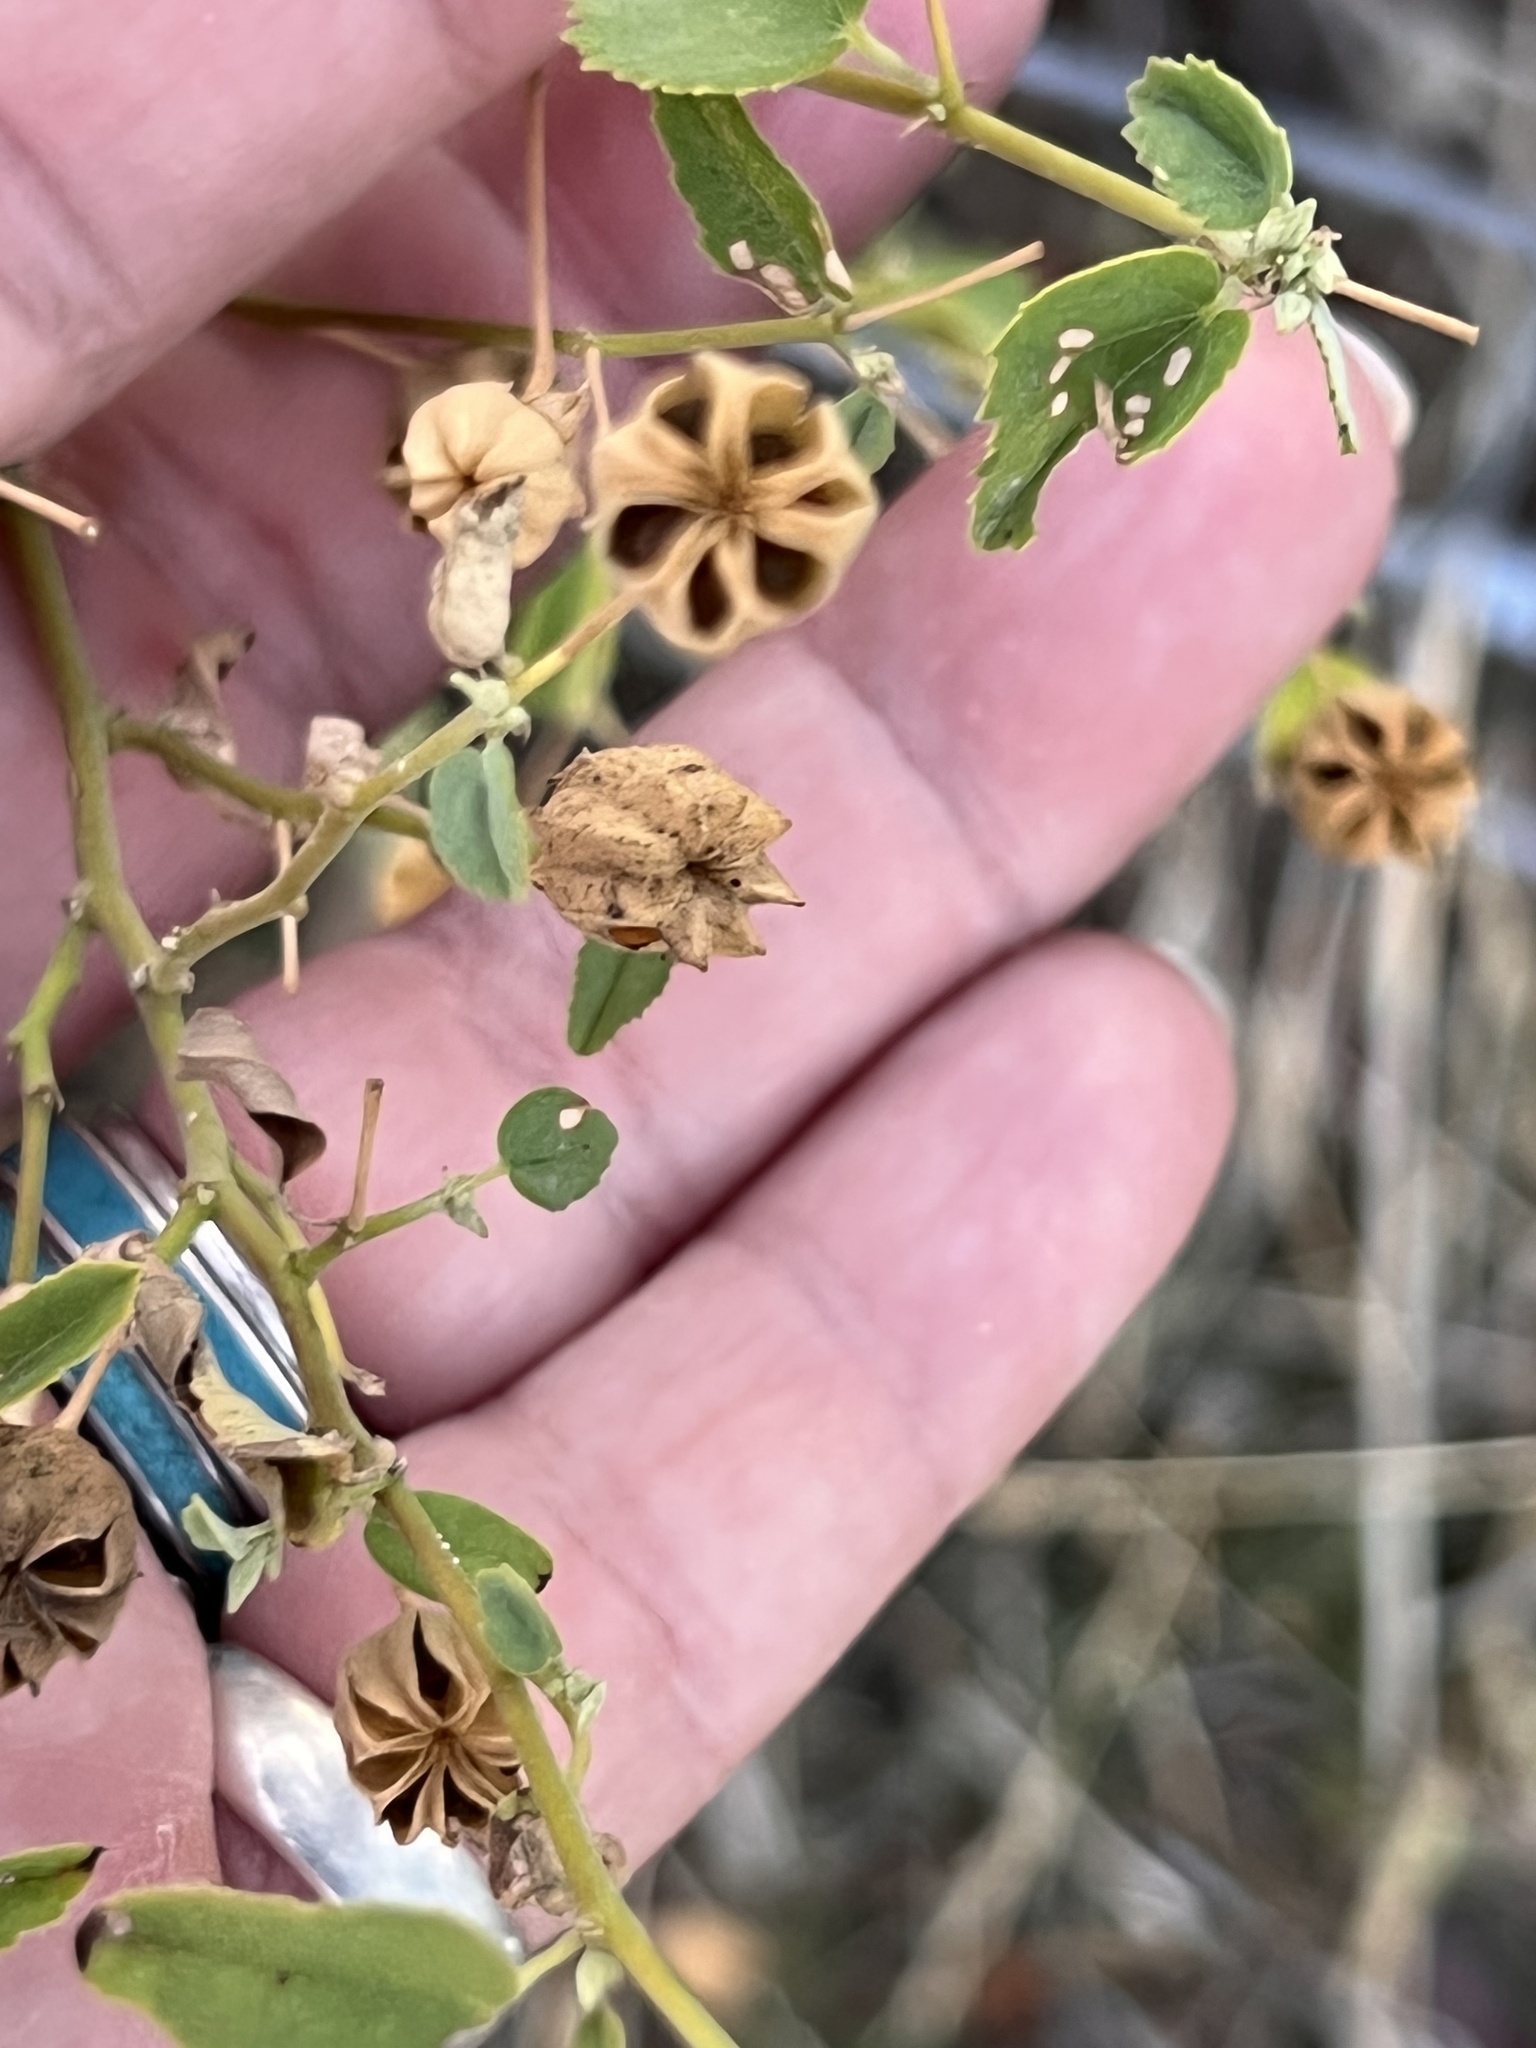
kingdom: Plantae
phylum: Tracheophyta
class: Magnoliopsida
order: Malvales
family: Malvaceae
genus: Abutilon
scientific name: Abutilon fruticosum
